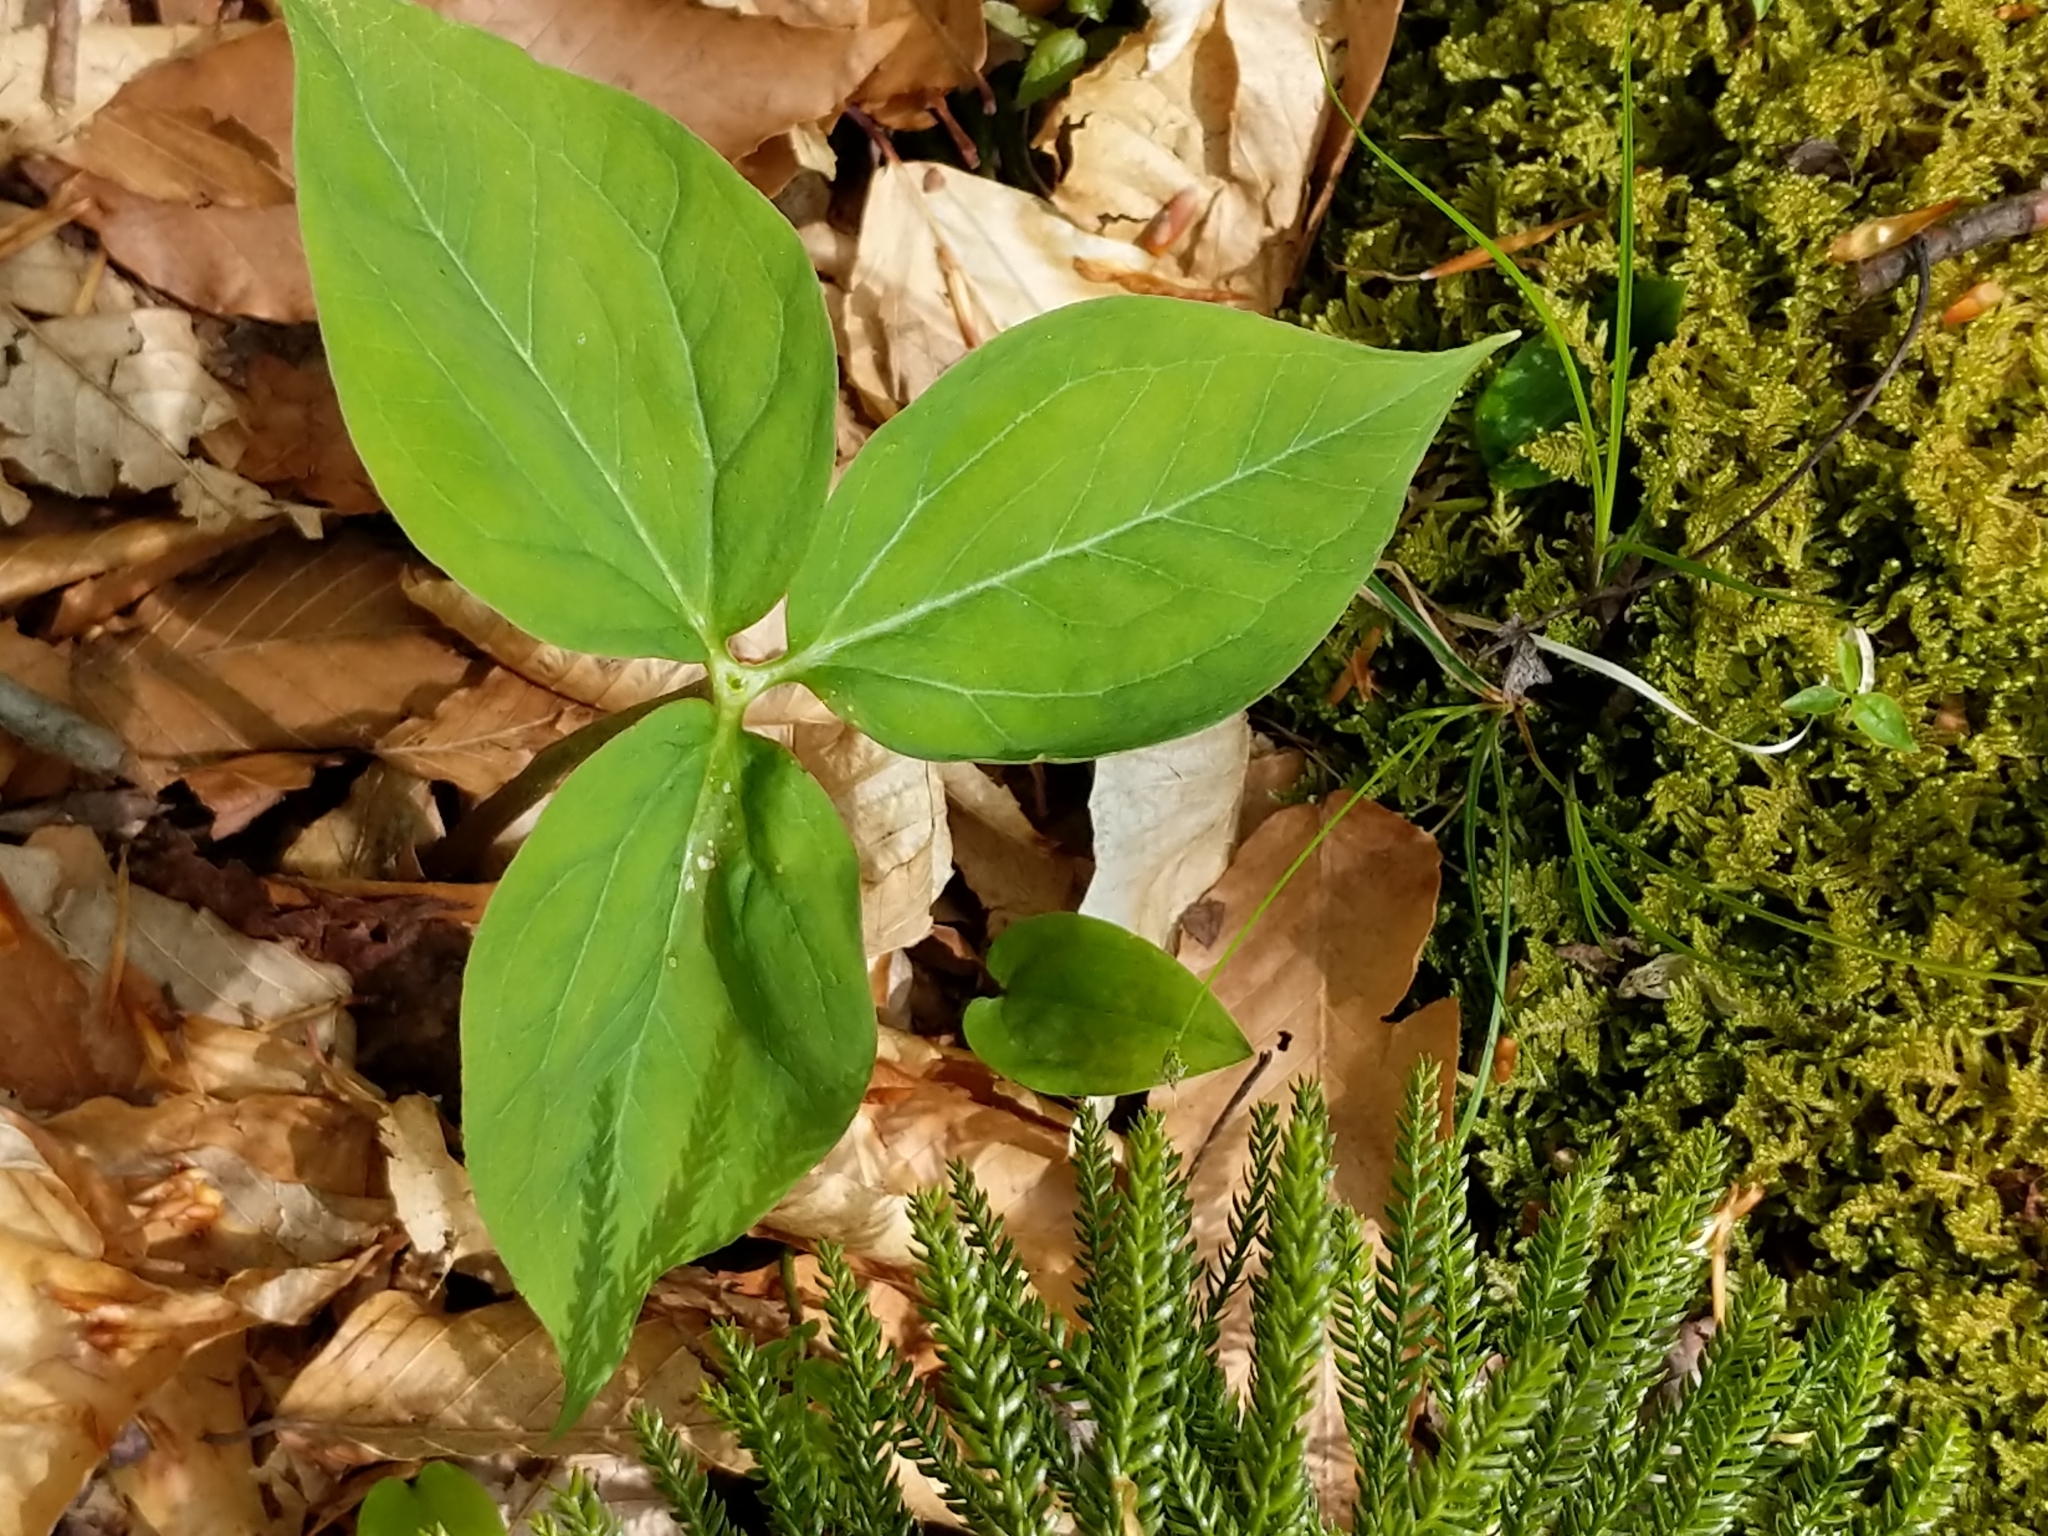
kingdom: Plantae
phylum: Tracheophyta
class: Liliopsida
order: Liliales
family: Melanthiaceae
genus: Trillium
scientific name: Trillium undulatum
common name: Paint trillium
